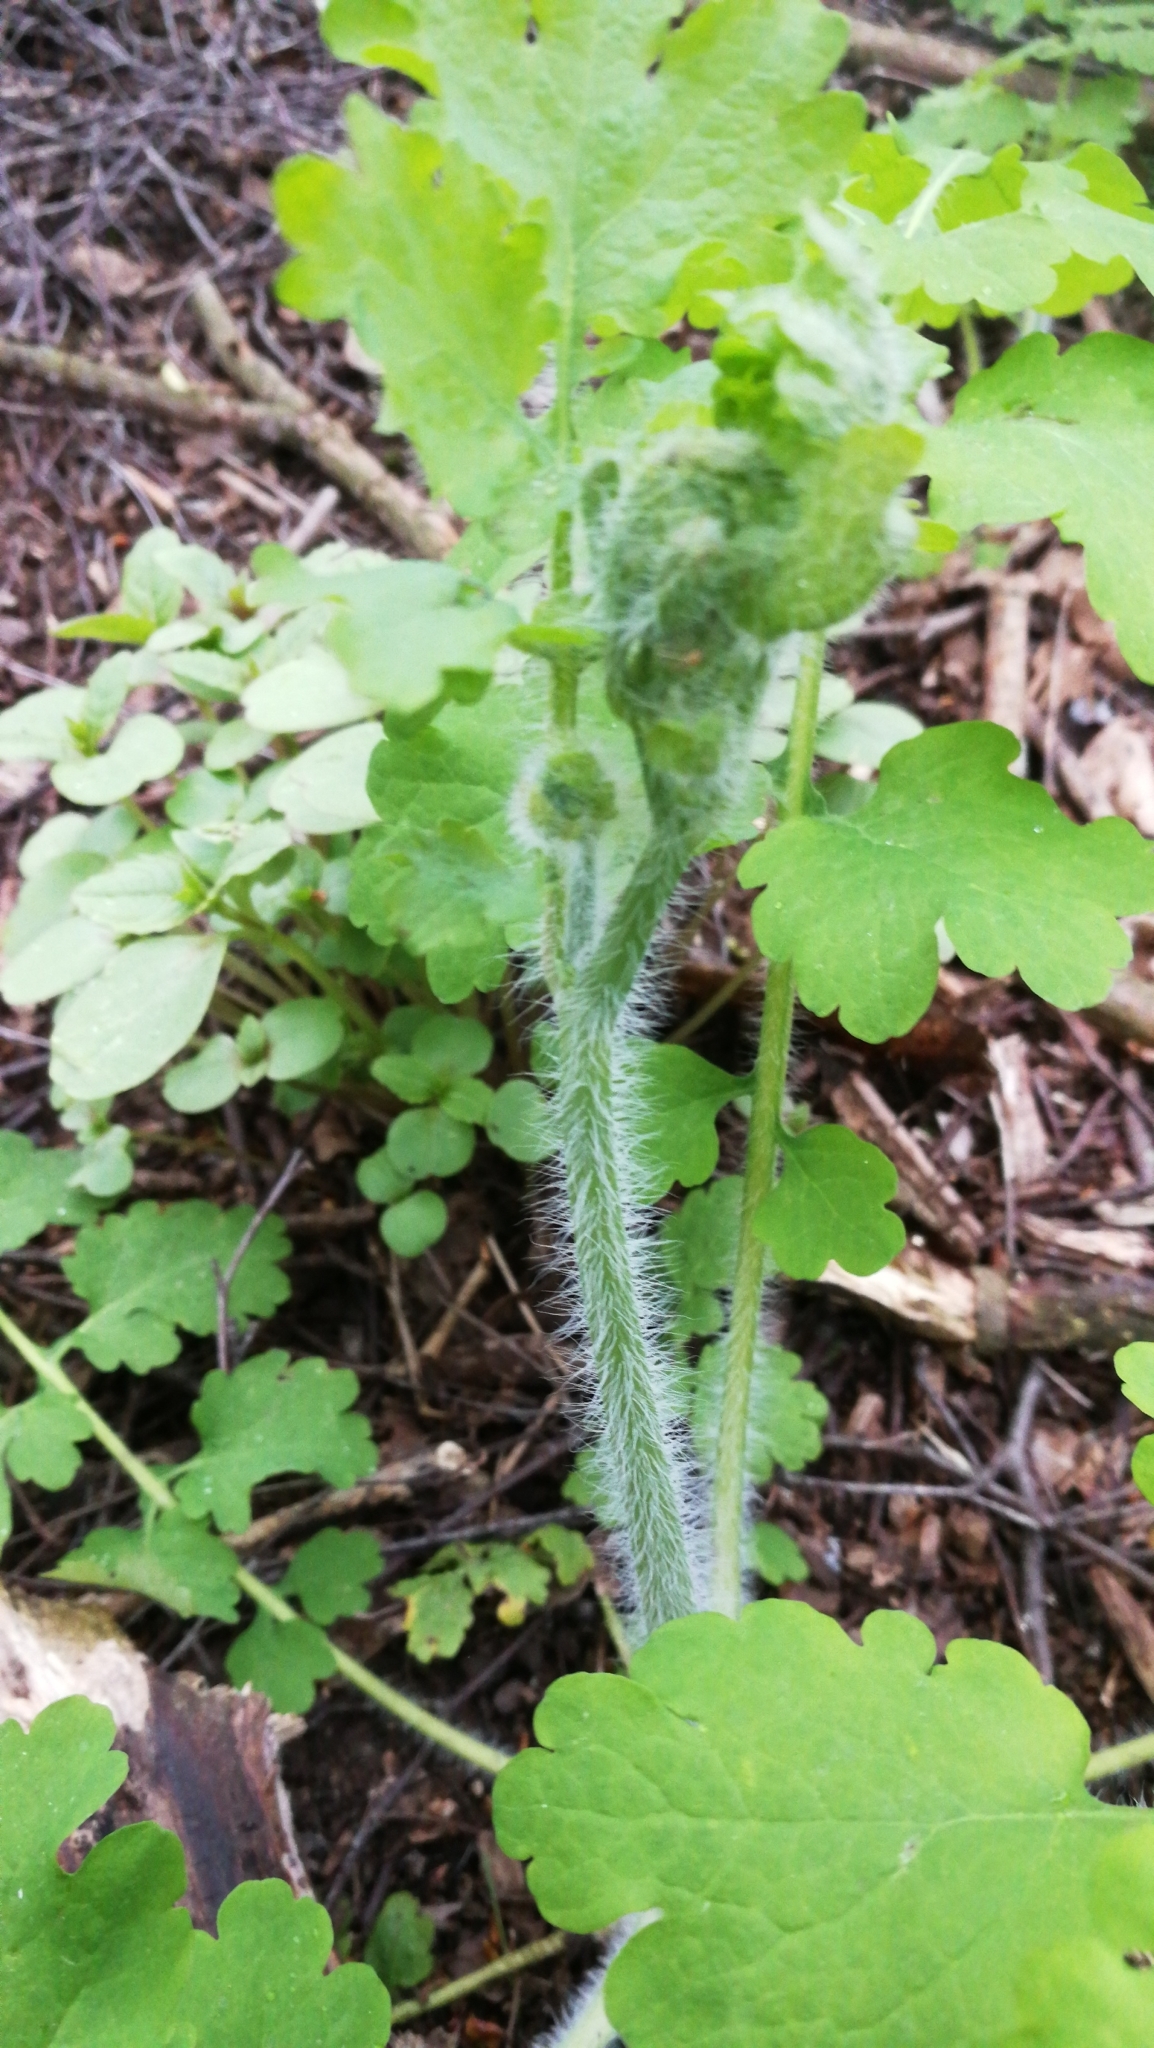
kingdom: Plantae
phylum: Tracheophyta
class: Magnoliopsida
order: Ranunculales
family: Papaveraceae
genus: Chelidonium
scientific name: Chelidonium majus
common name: Greater celandine
